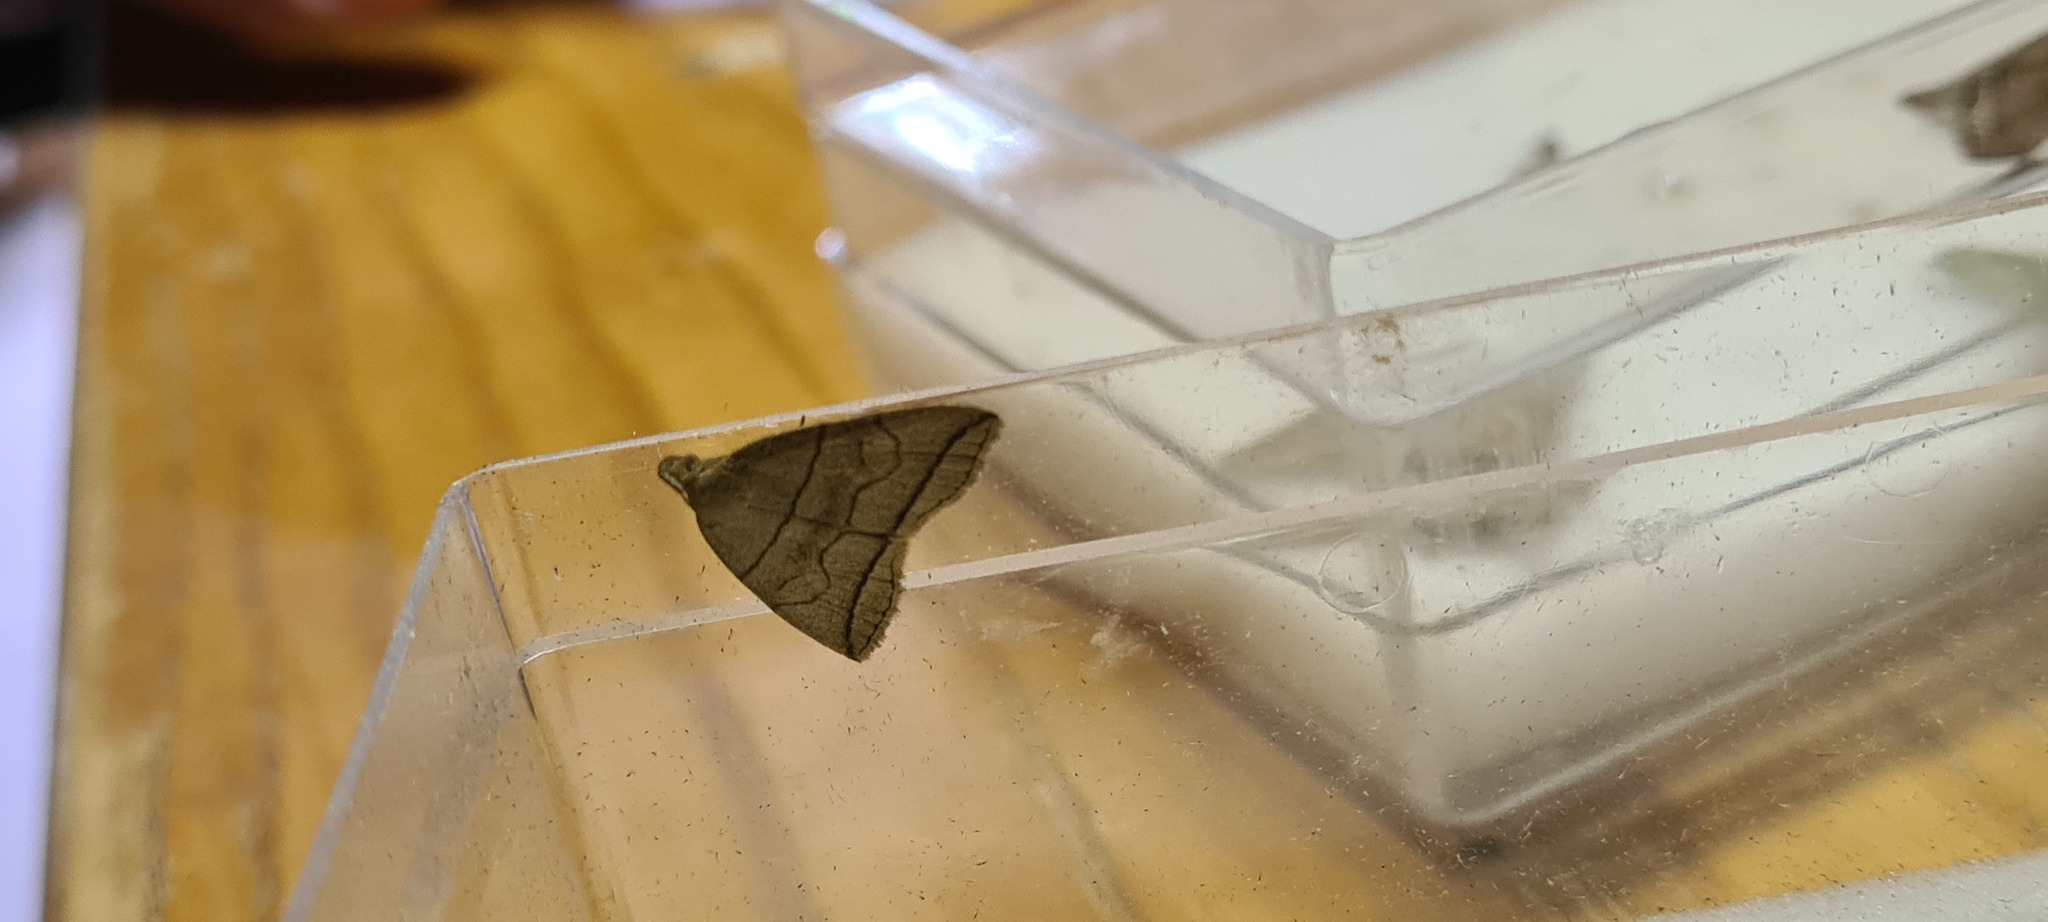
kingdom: Animalia
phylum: Arthropoda
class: Insecta
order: Lepidoptera
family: Erebidae
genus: Herminia
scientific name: Herminia grisealis
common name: Small fan-foot
